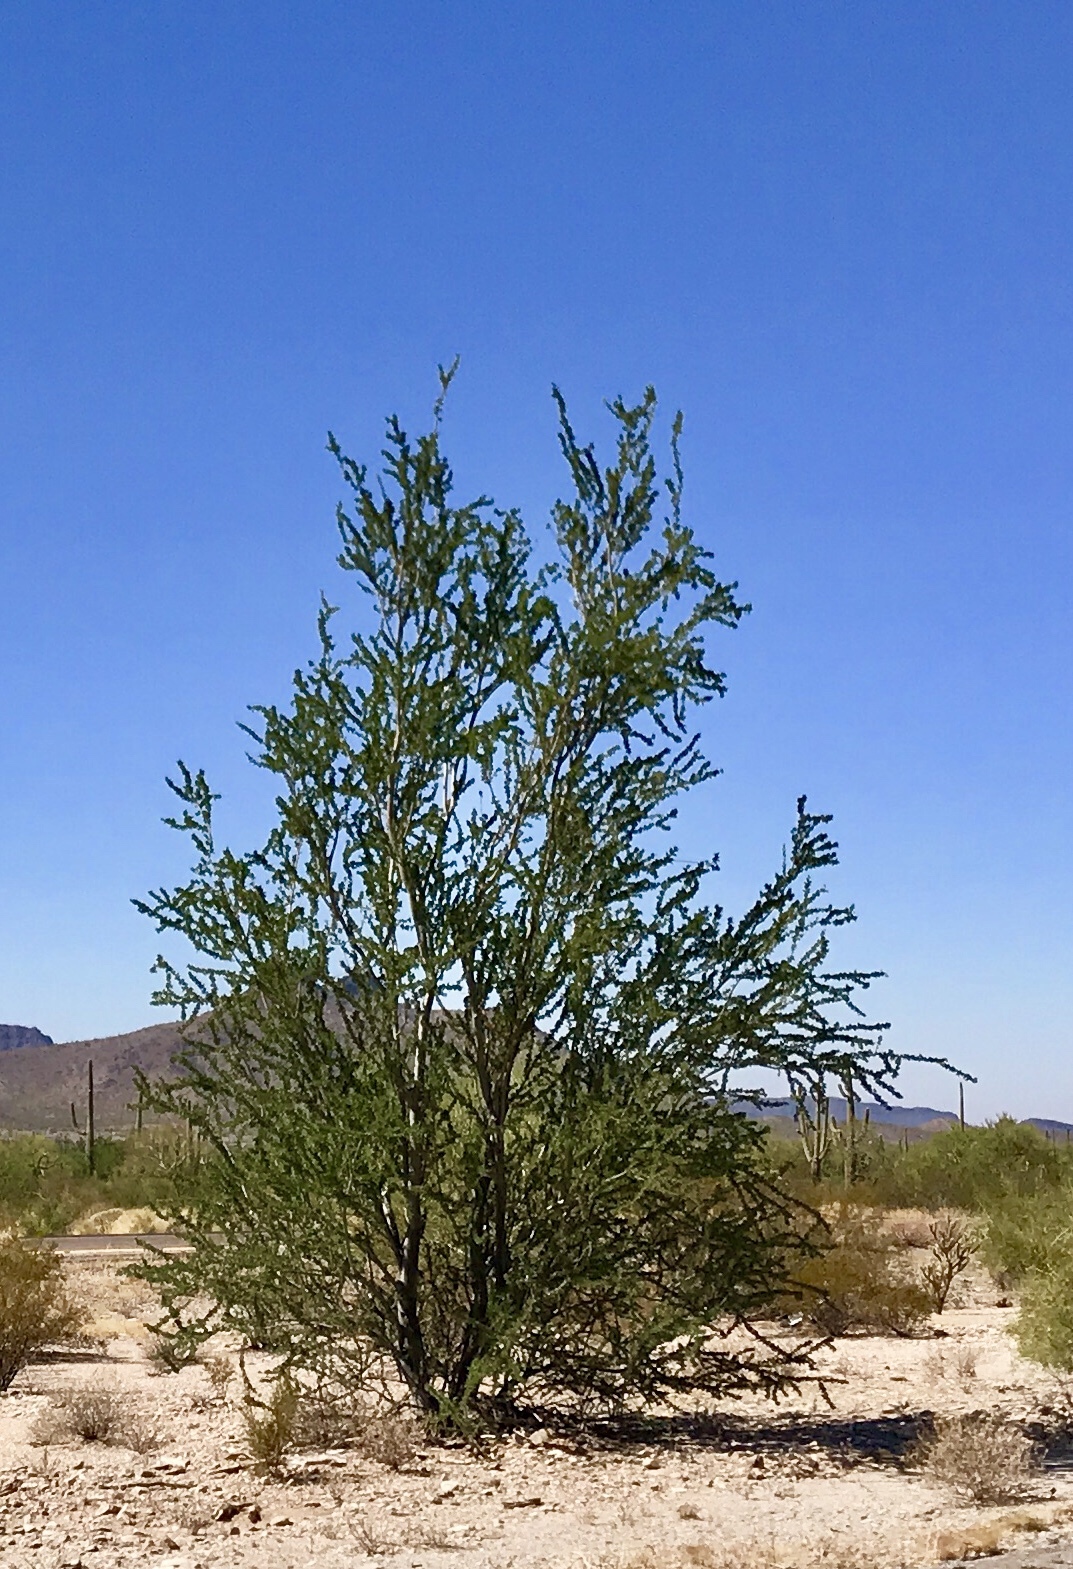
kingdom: Plantae
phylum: Tracheophyta
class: Magnoliopsida
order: Fabales
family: Fabaceae
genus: Olneya
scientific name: Olneya tesota
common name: Desert ironwood
